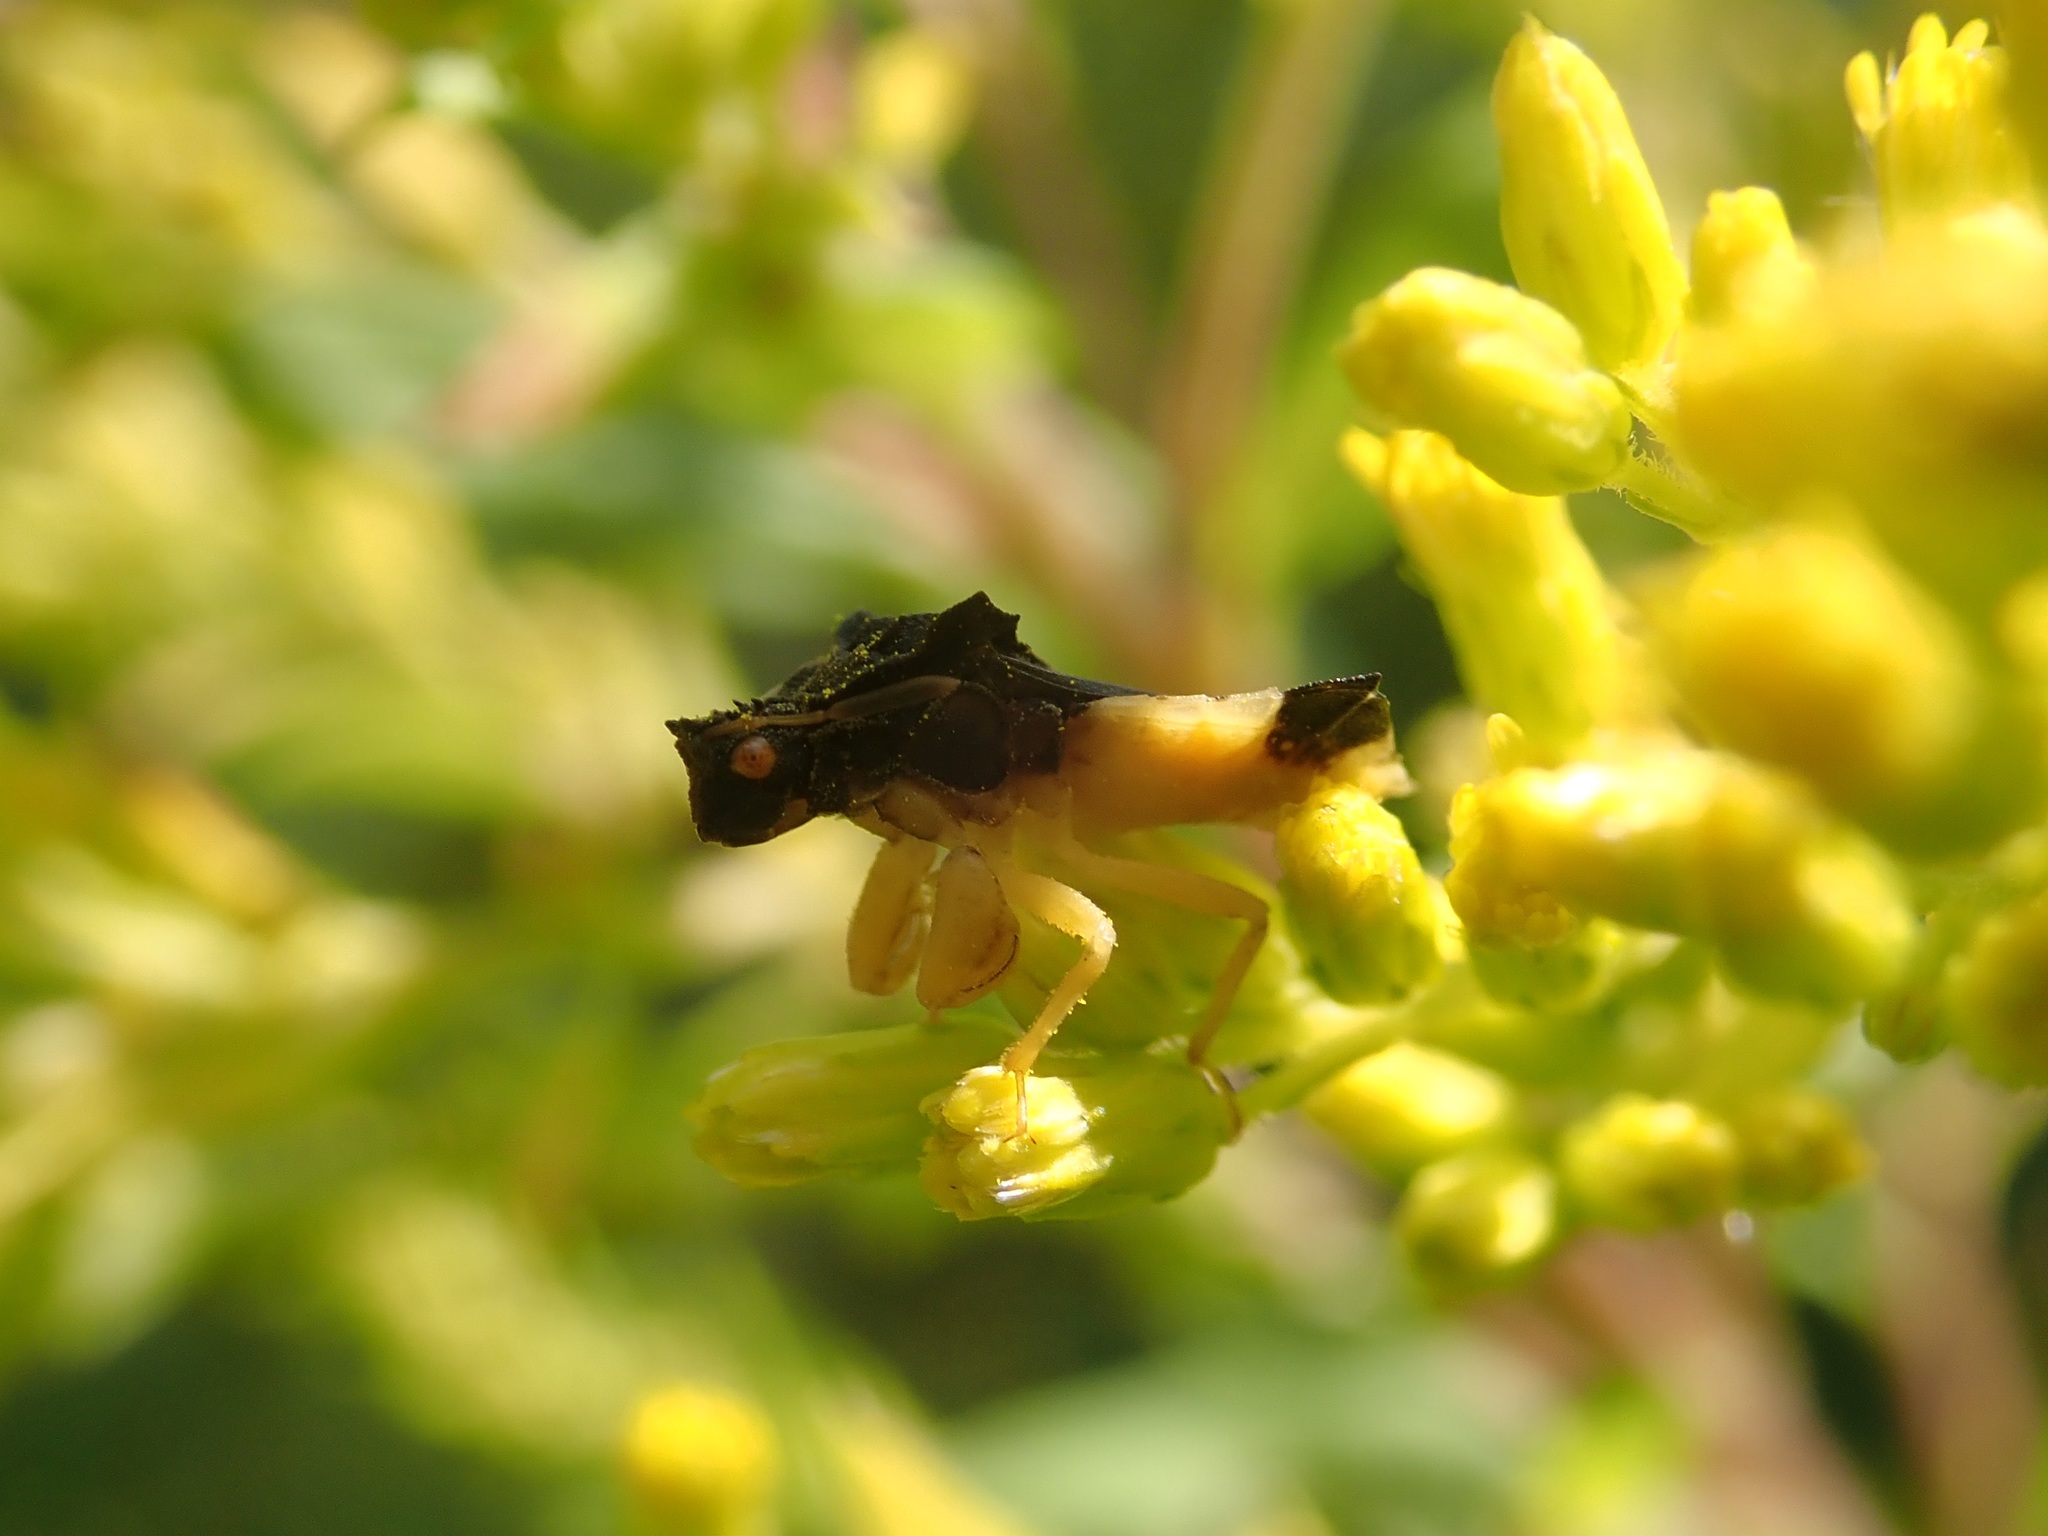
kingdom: Animalia
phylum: Arthropoda
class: Insecta
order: Hemiptera
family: Reduviidae
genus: Phymata
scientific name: Phymata pennsylvanica
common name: Pennsylvania ambush bug
